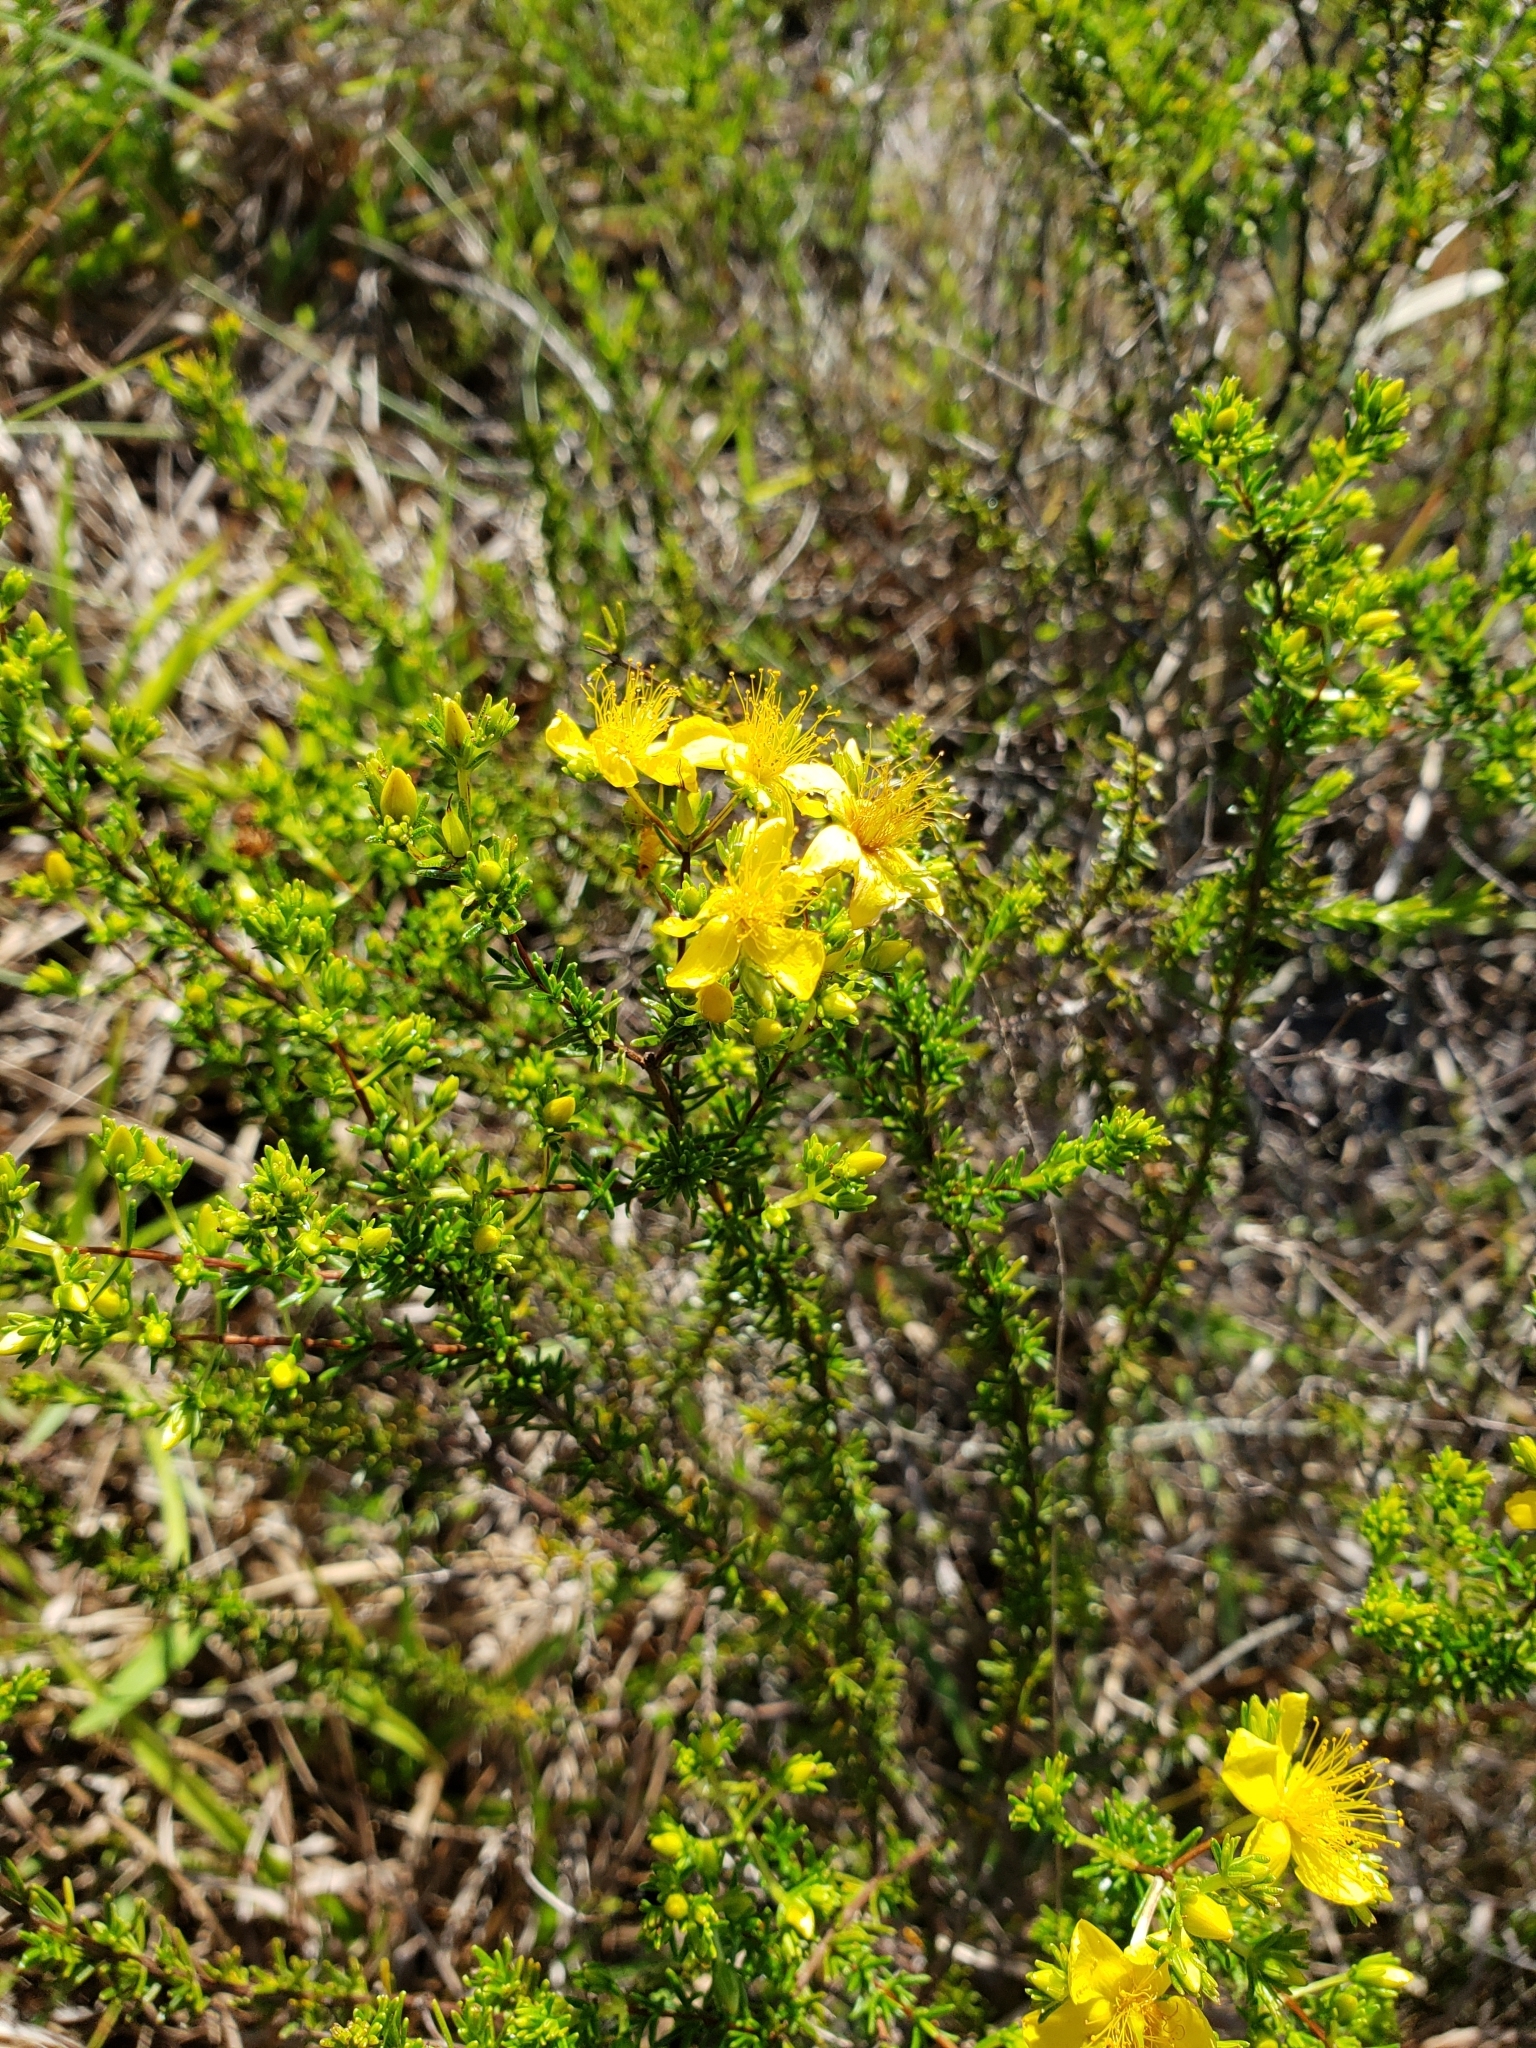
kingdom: Plantae
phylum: Tracheophyta
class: Magnoliopsida
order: Malpighiales
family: Hypericaceae
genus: Hypericum
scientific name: Hypericum tenuifolium
